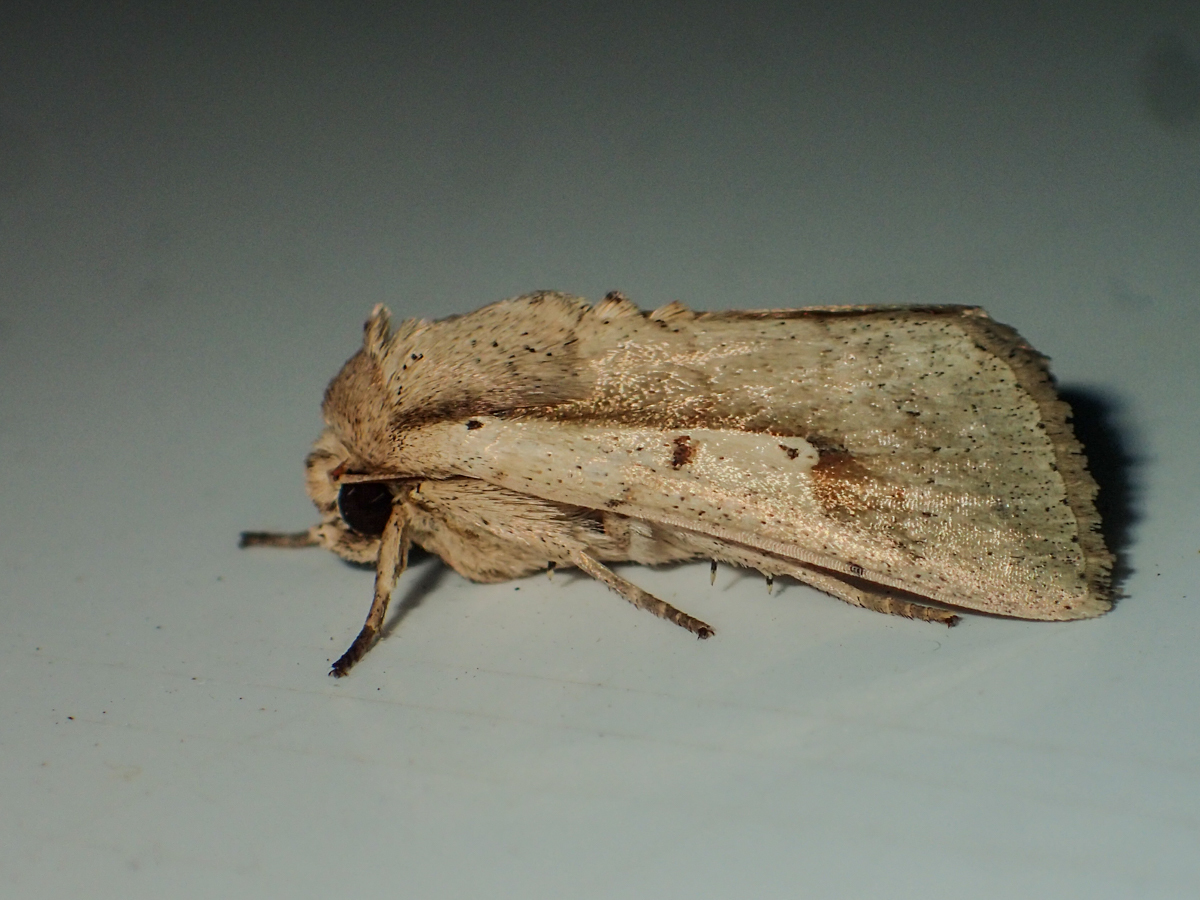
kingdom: Animalia
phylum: Arthropoda
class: Insecta
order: Lepidoptera
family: Noctuidae
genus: Leucania
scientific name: Leucania yu
